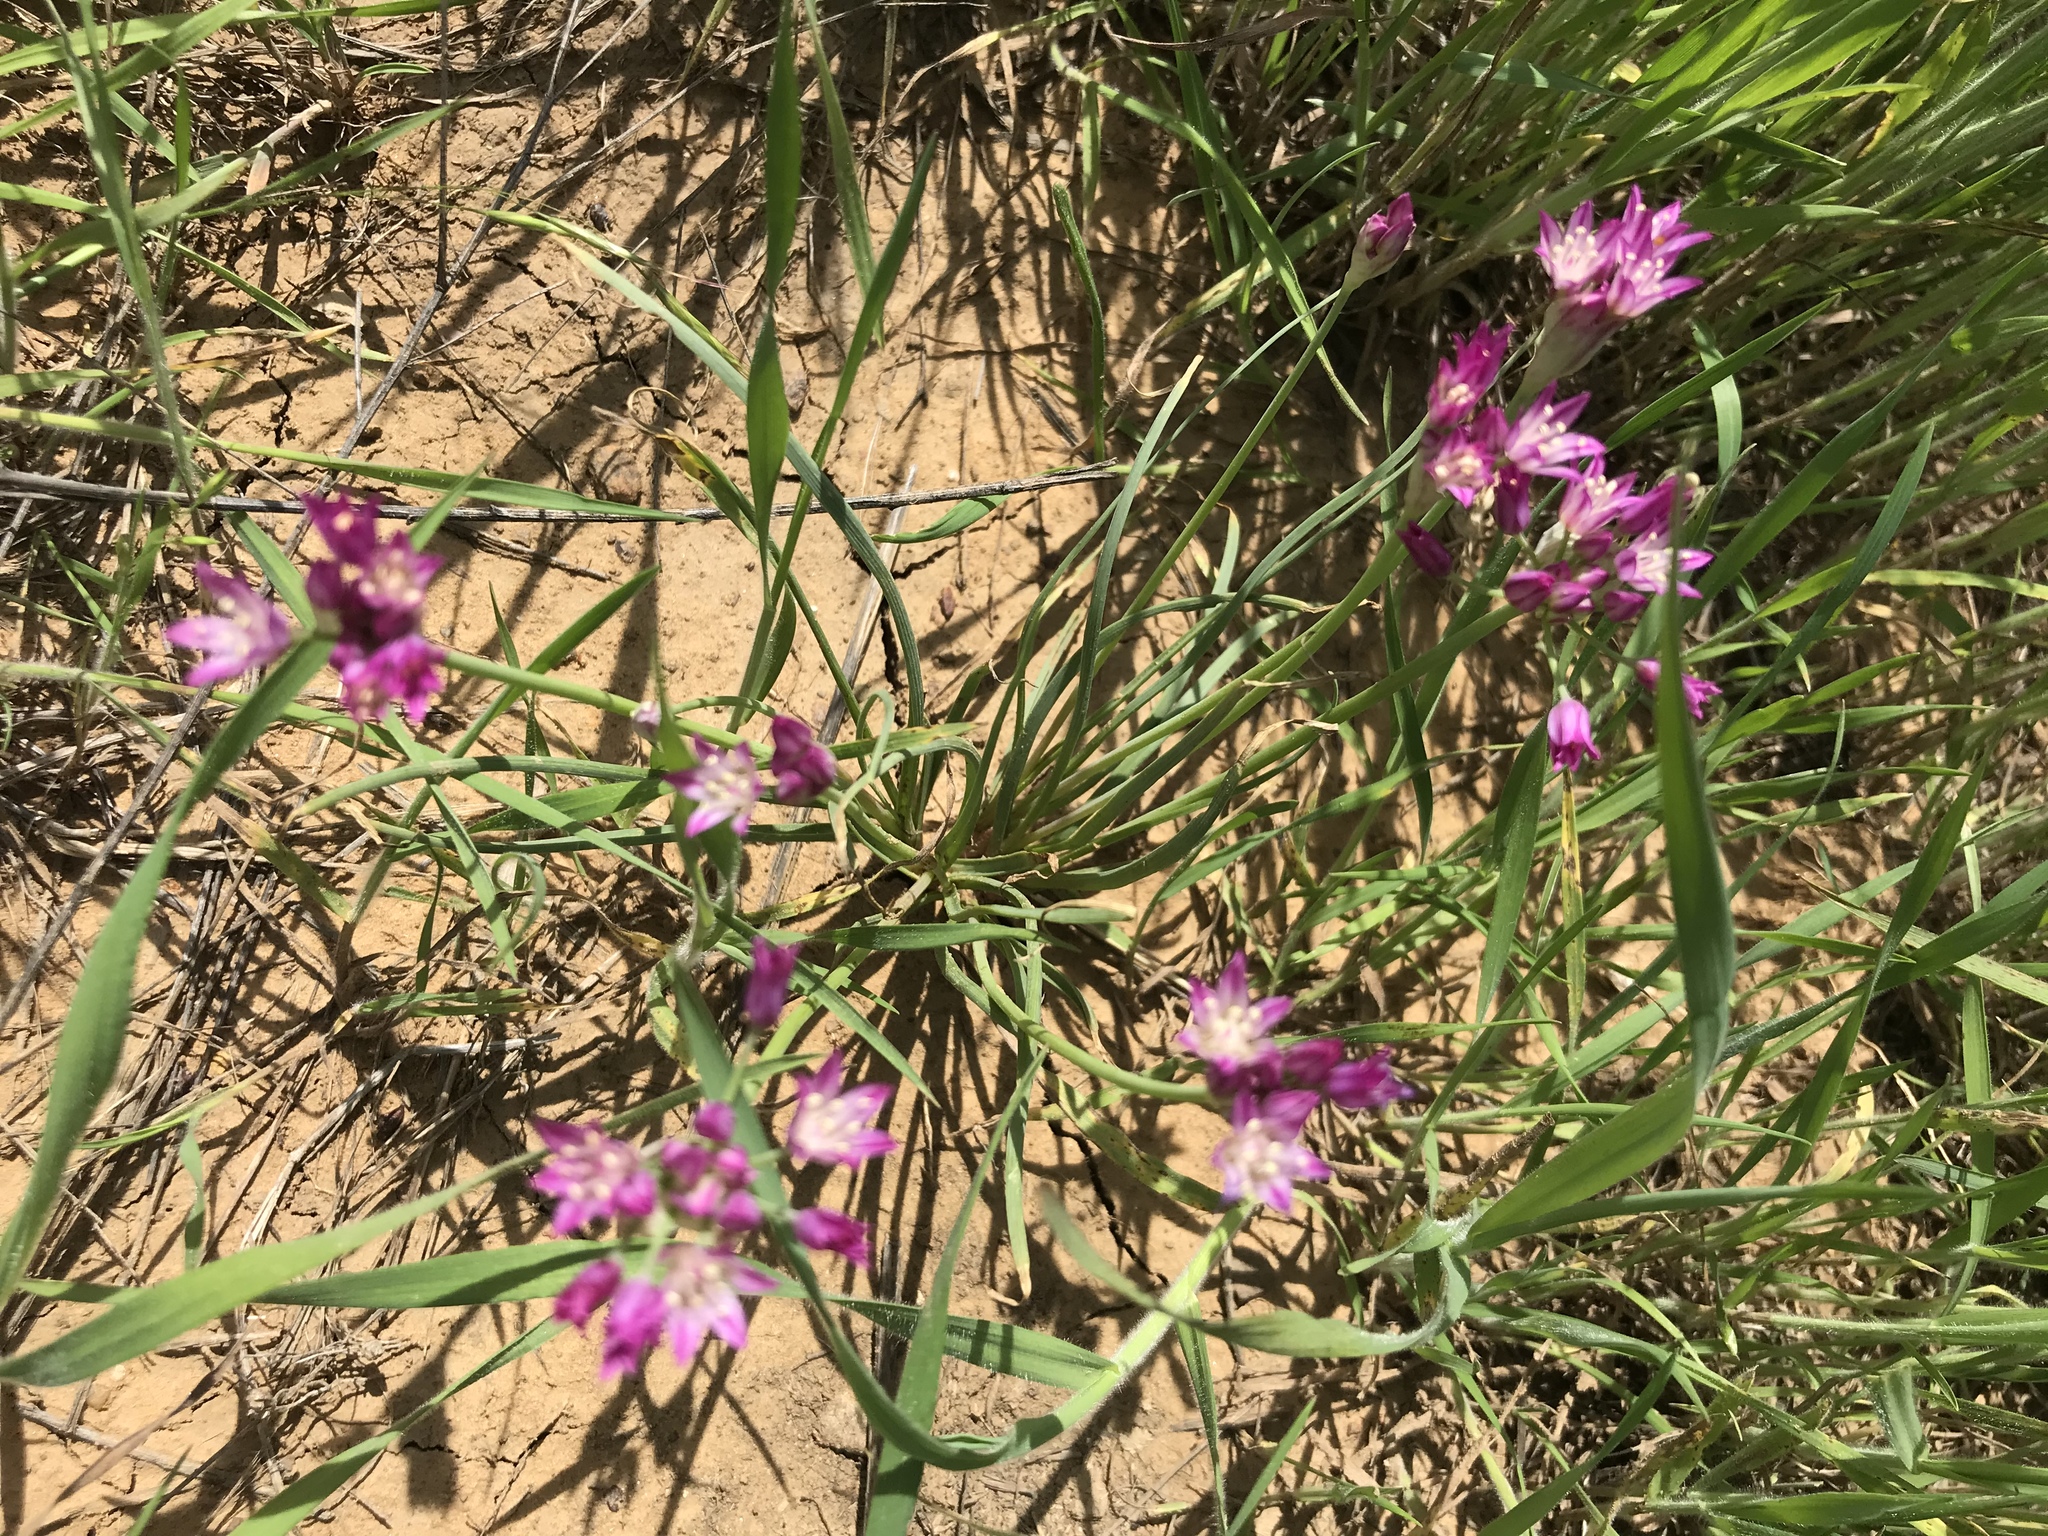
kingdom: Plantae
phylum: Tracheophyta
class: Liliopsida
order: Asparagales
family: Amaryllidaceae
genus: Allium
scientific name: Allium drummondii
